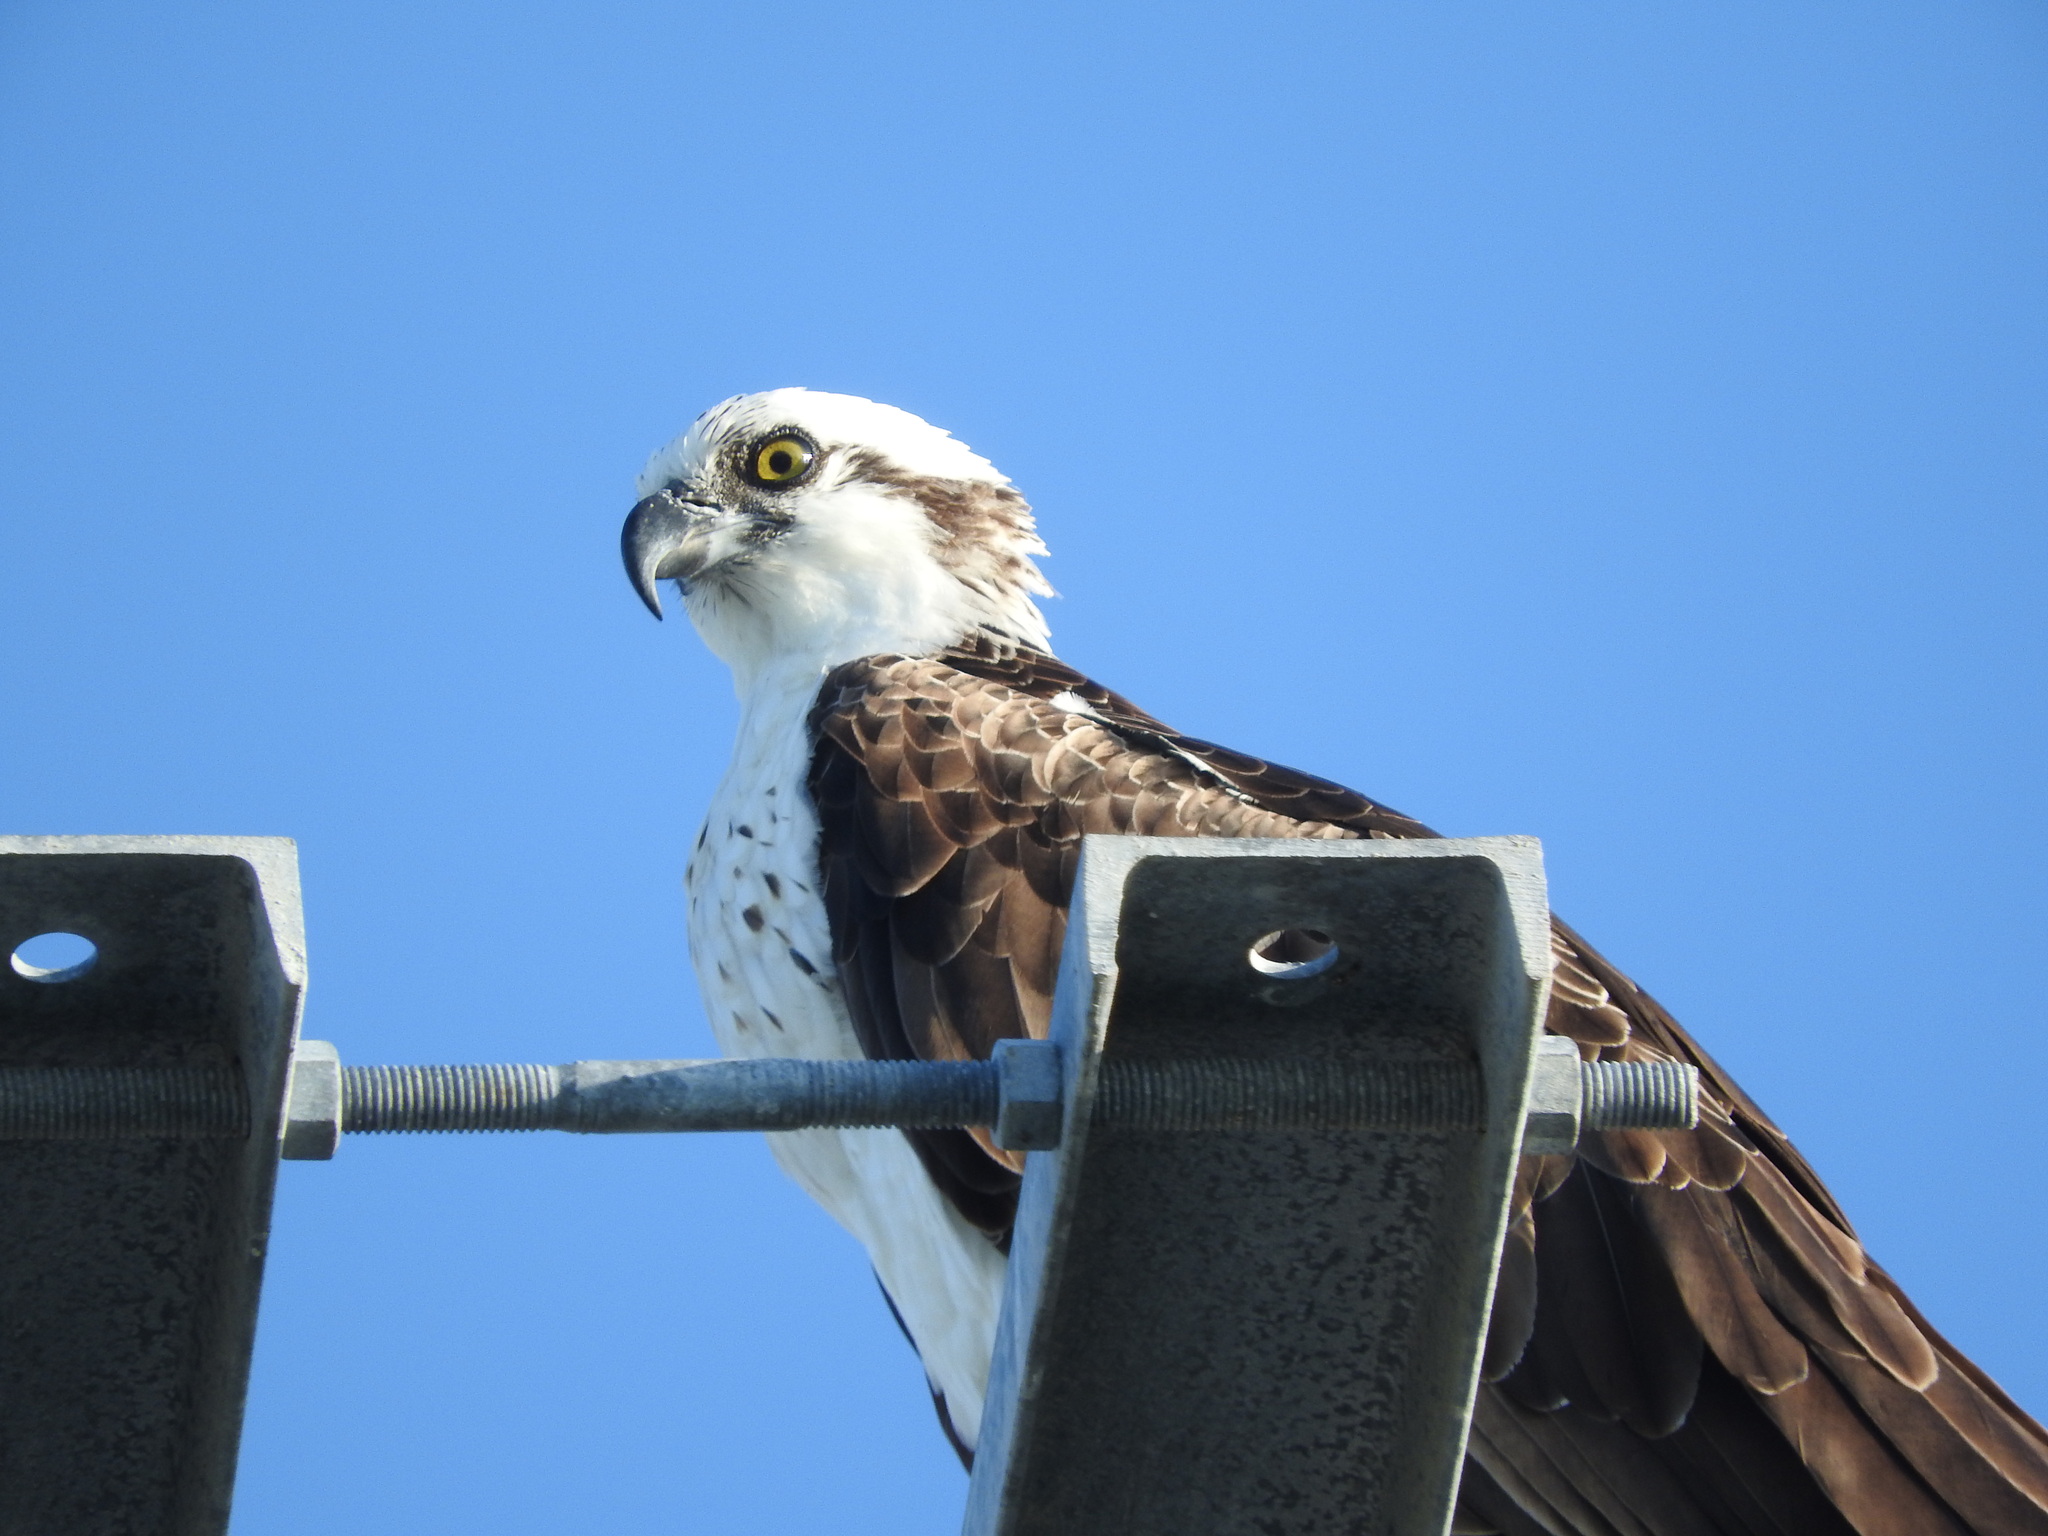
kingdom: Animalia
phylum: Chordata
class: Aves
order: Accipitriformes
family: Pandionidae
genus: Pandion
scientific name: Pandion haliaetus
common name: Osprey
